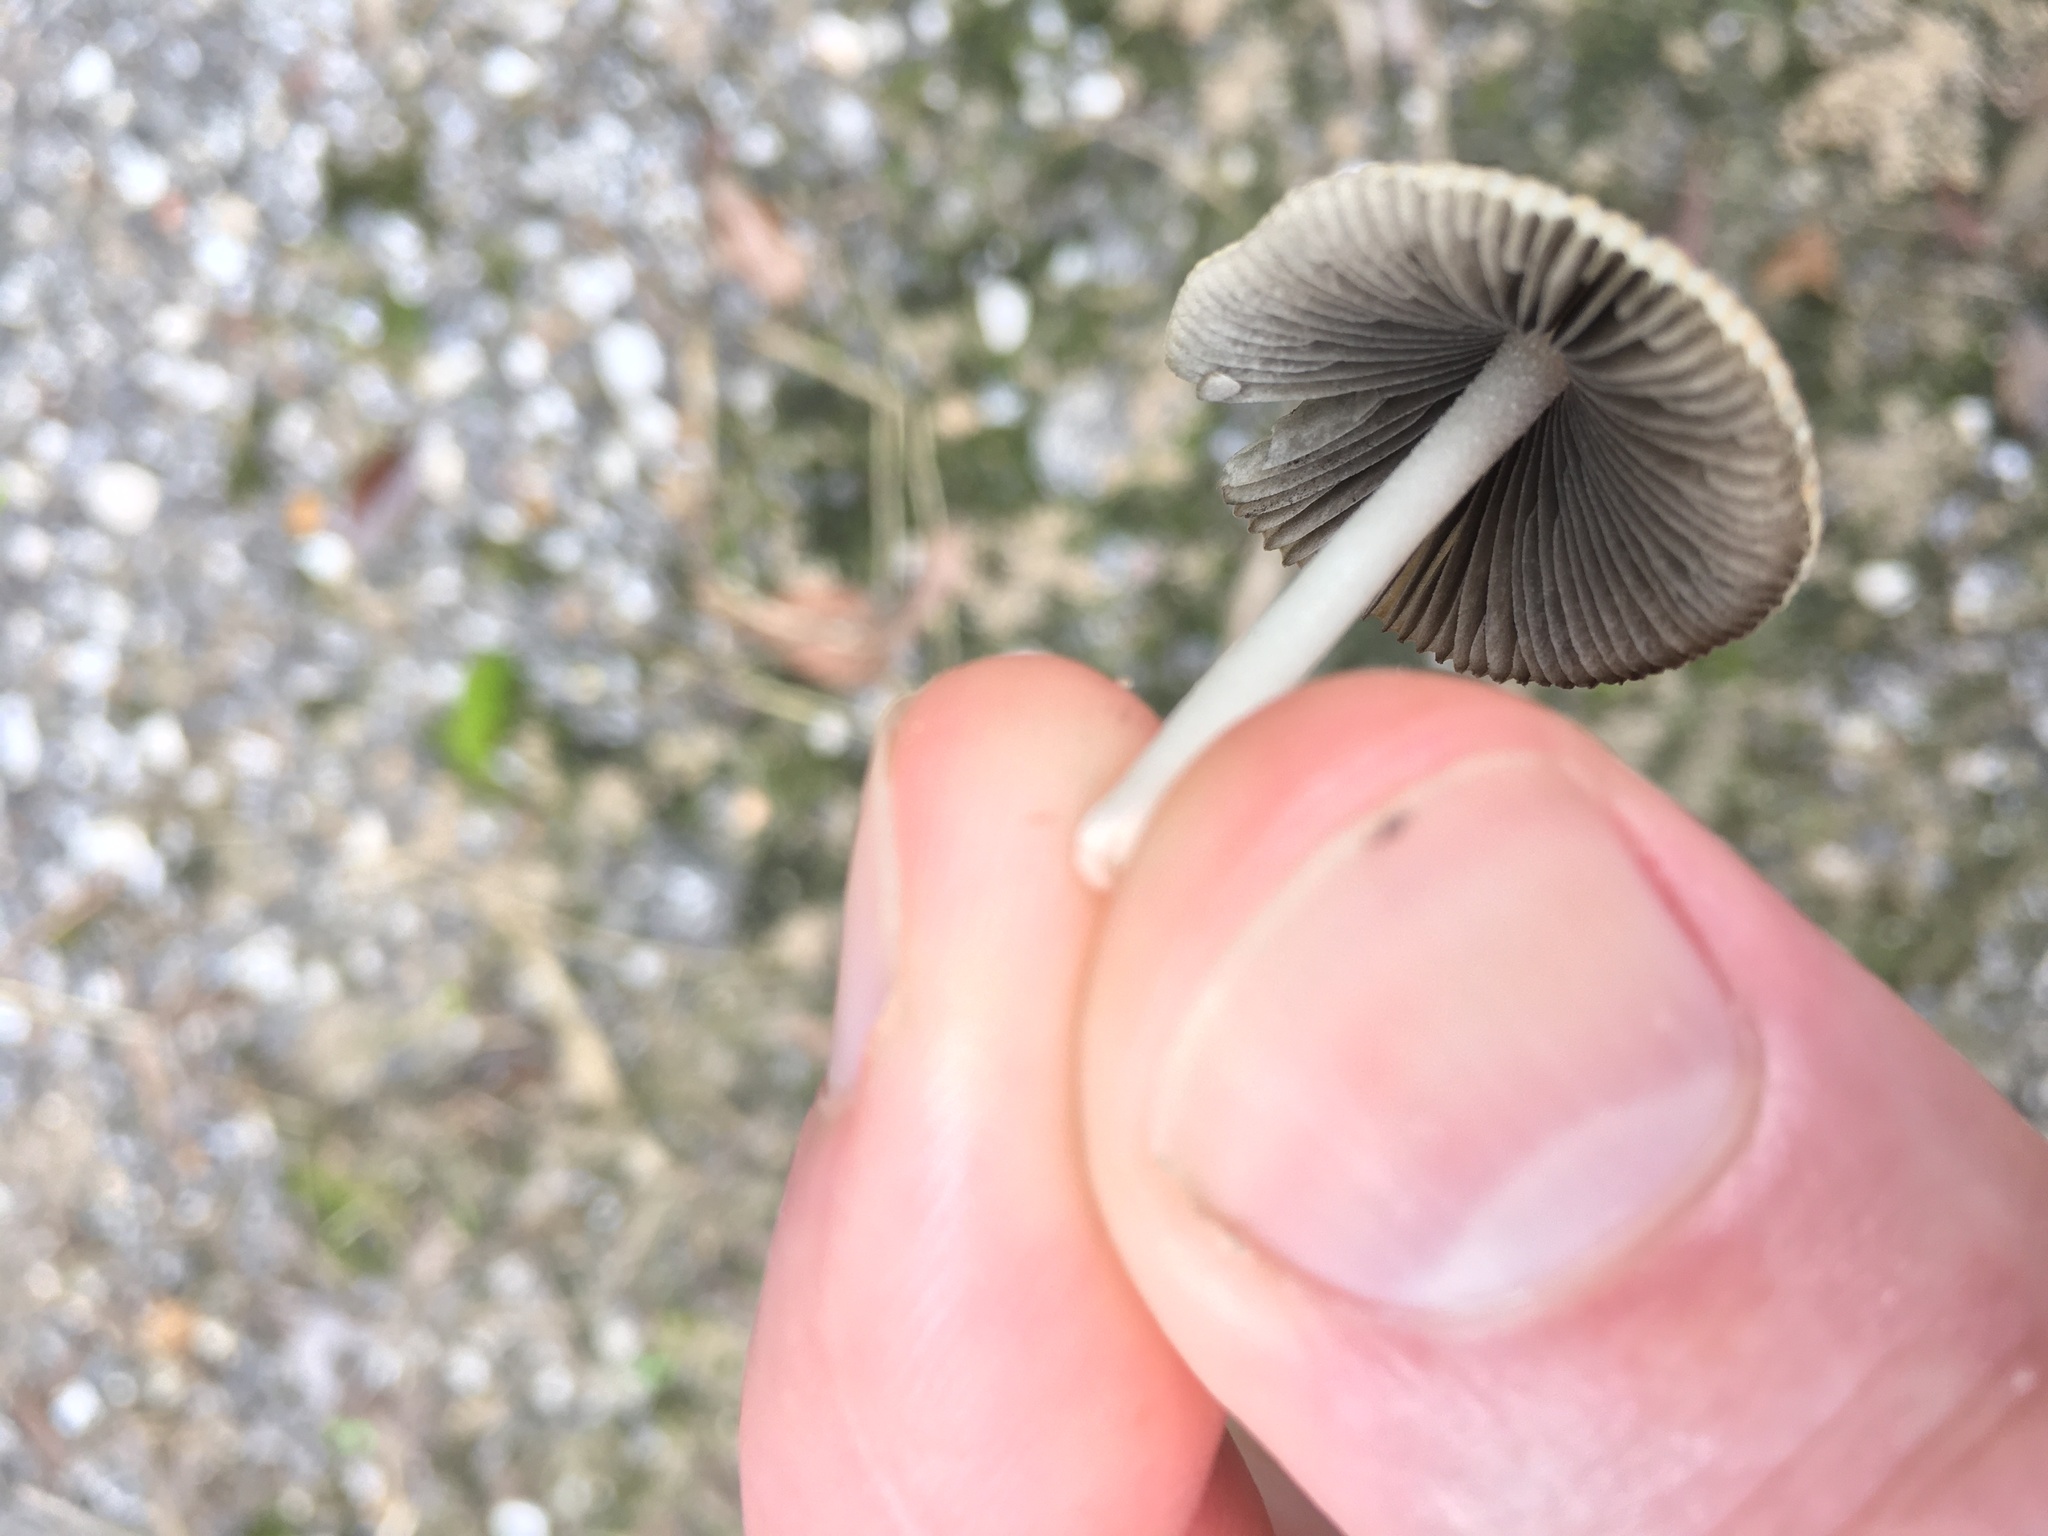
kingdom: Fungi
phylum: Basidiomycota
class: Agaricomycetes
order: Agaricales
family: Psathyrellaceae
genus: Coprinellus
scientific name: Coprinellus arenicola
